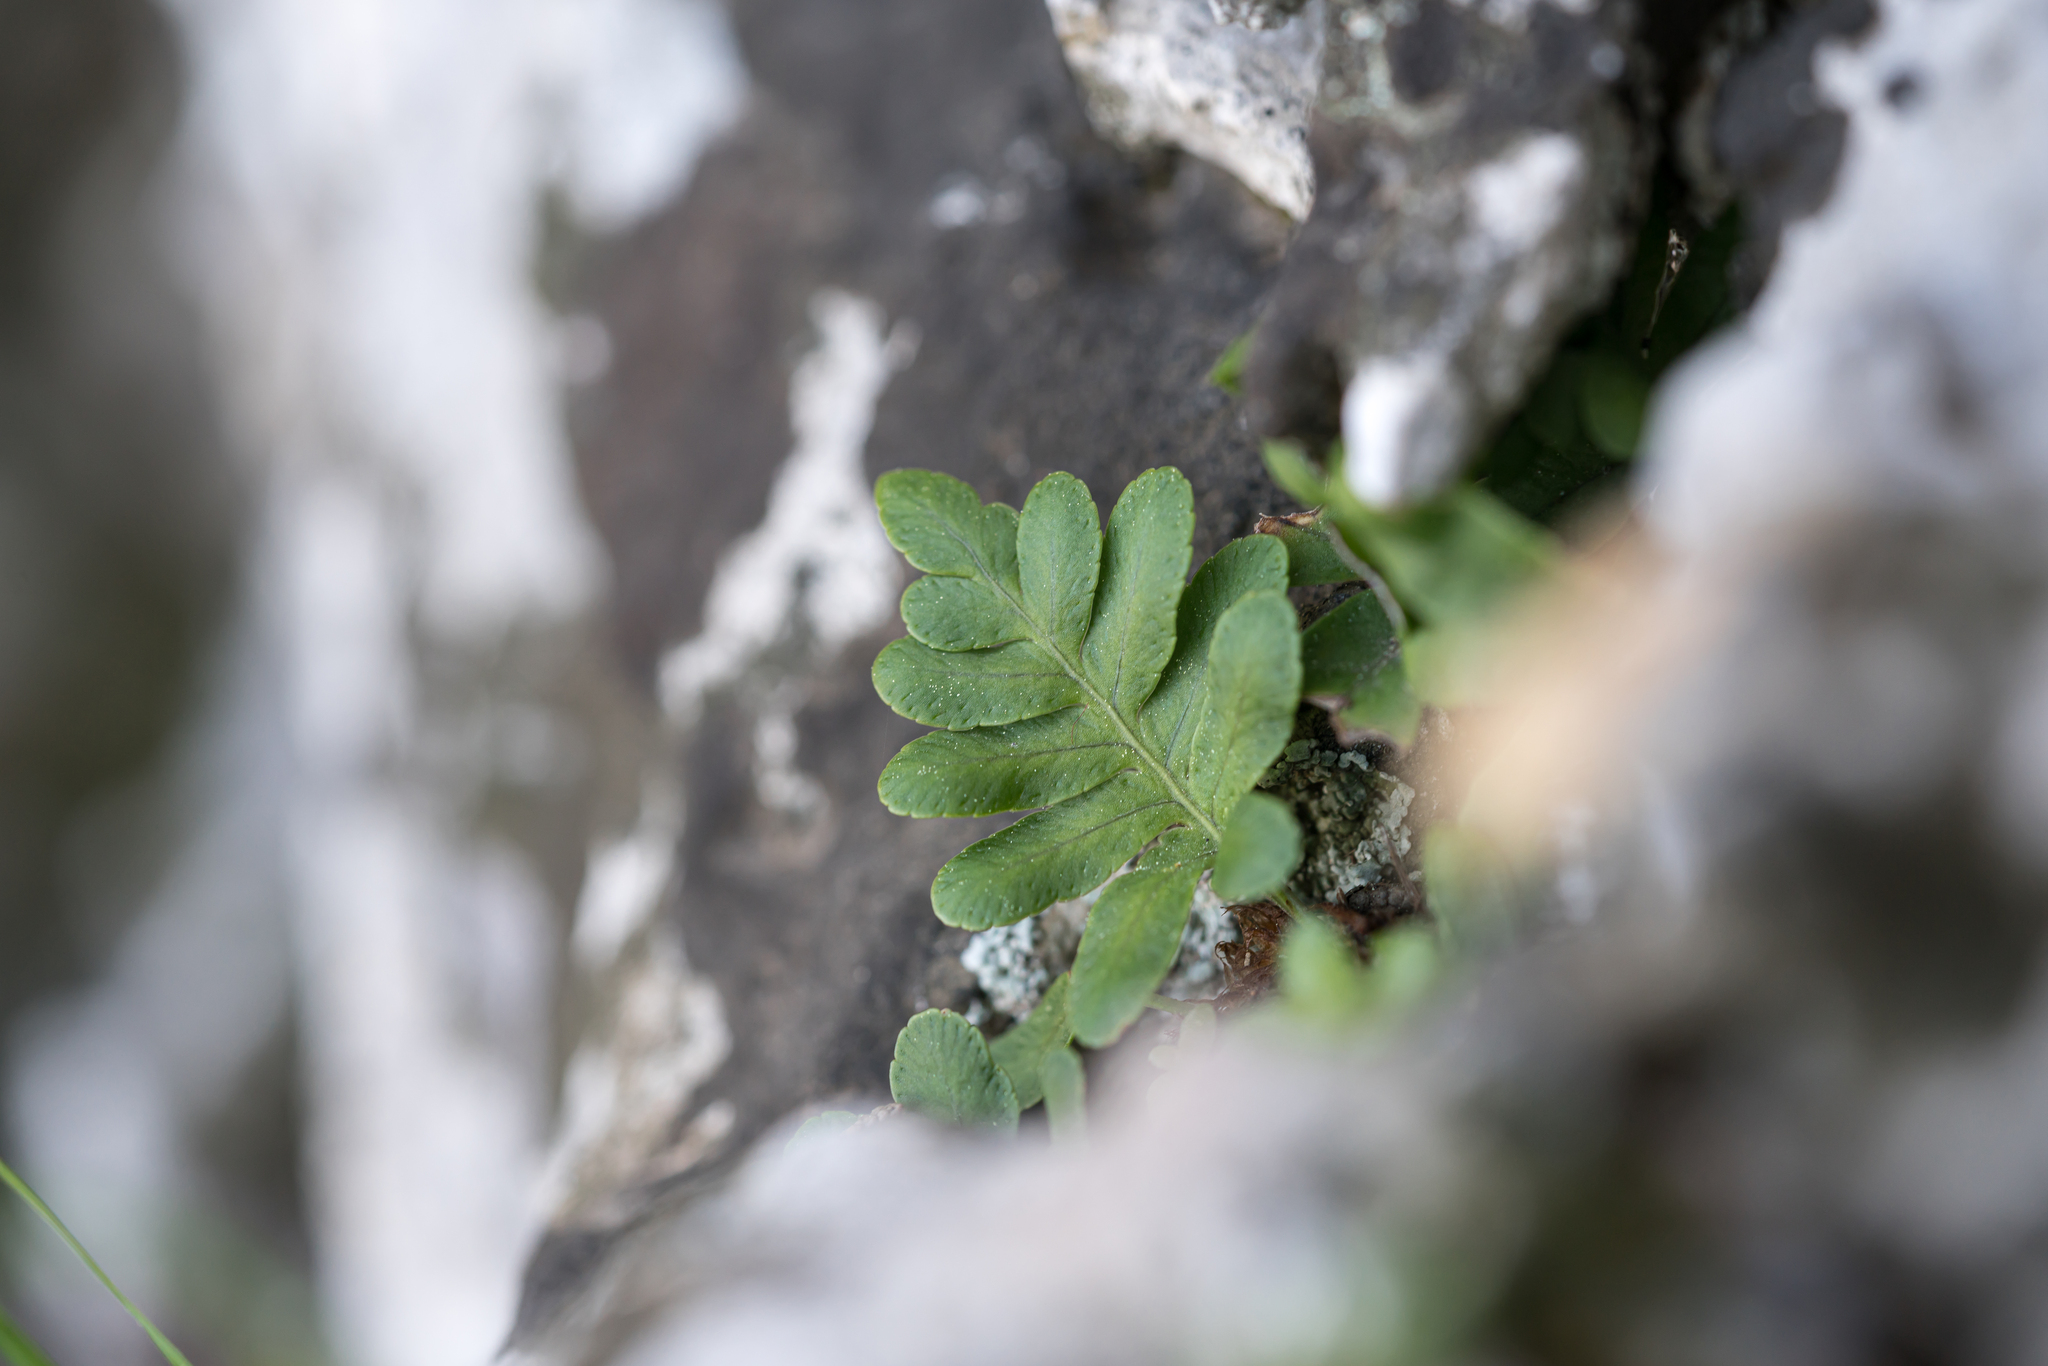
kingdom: Plantae
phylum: Tracheophyta
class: Polypodiopsida
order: Polypodiales
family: Polypodiaceae
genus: Polypodium
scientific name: Polypodium cambricum
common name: Southern polypody
